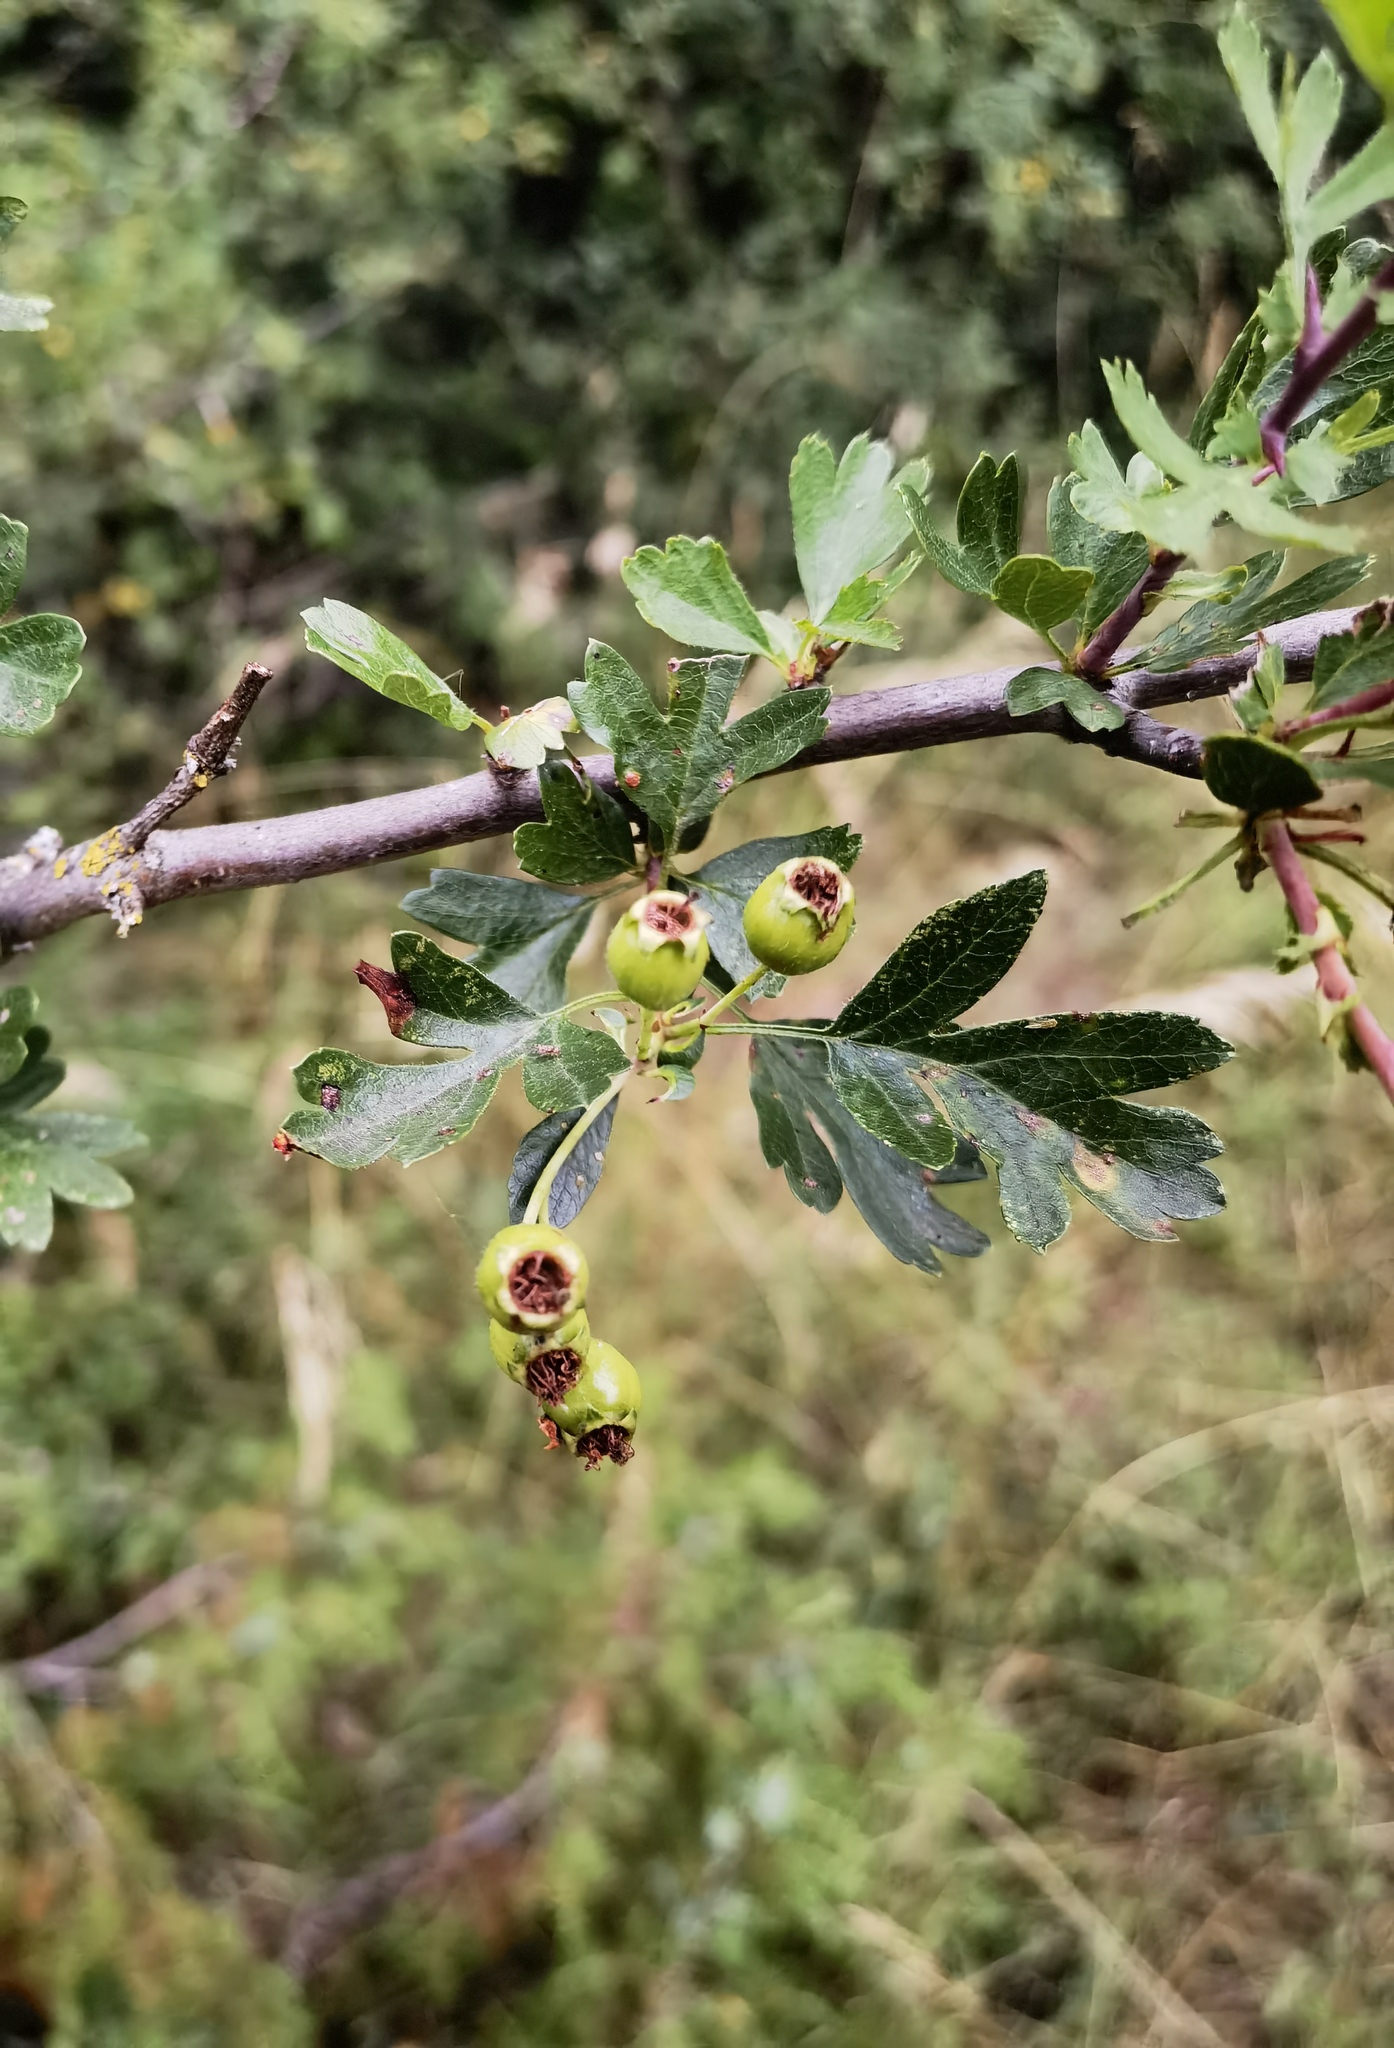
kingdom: Plantae
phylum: Tracheophyta
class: Magnoliopsida
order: Rosales
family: Rosaceae
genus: Crataegus
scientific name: Crataegus monogyna
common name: Hawthorn
